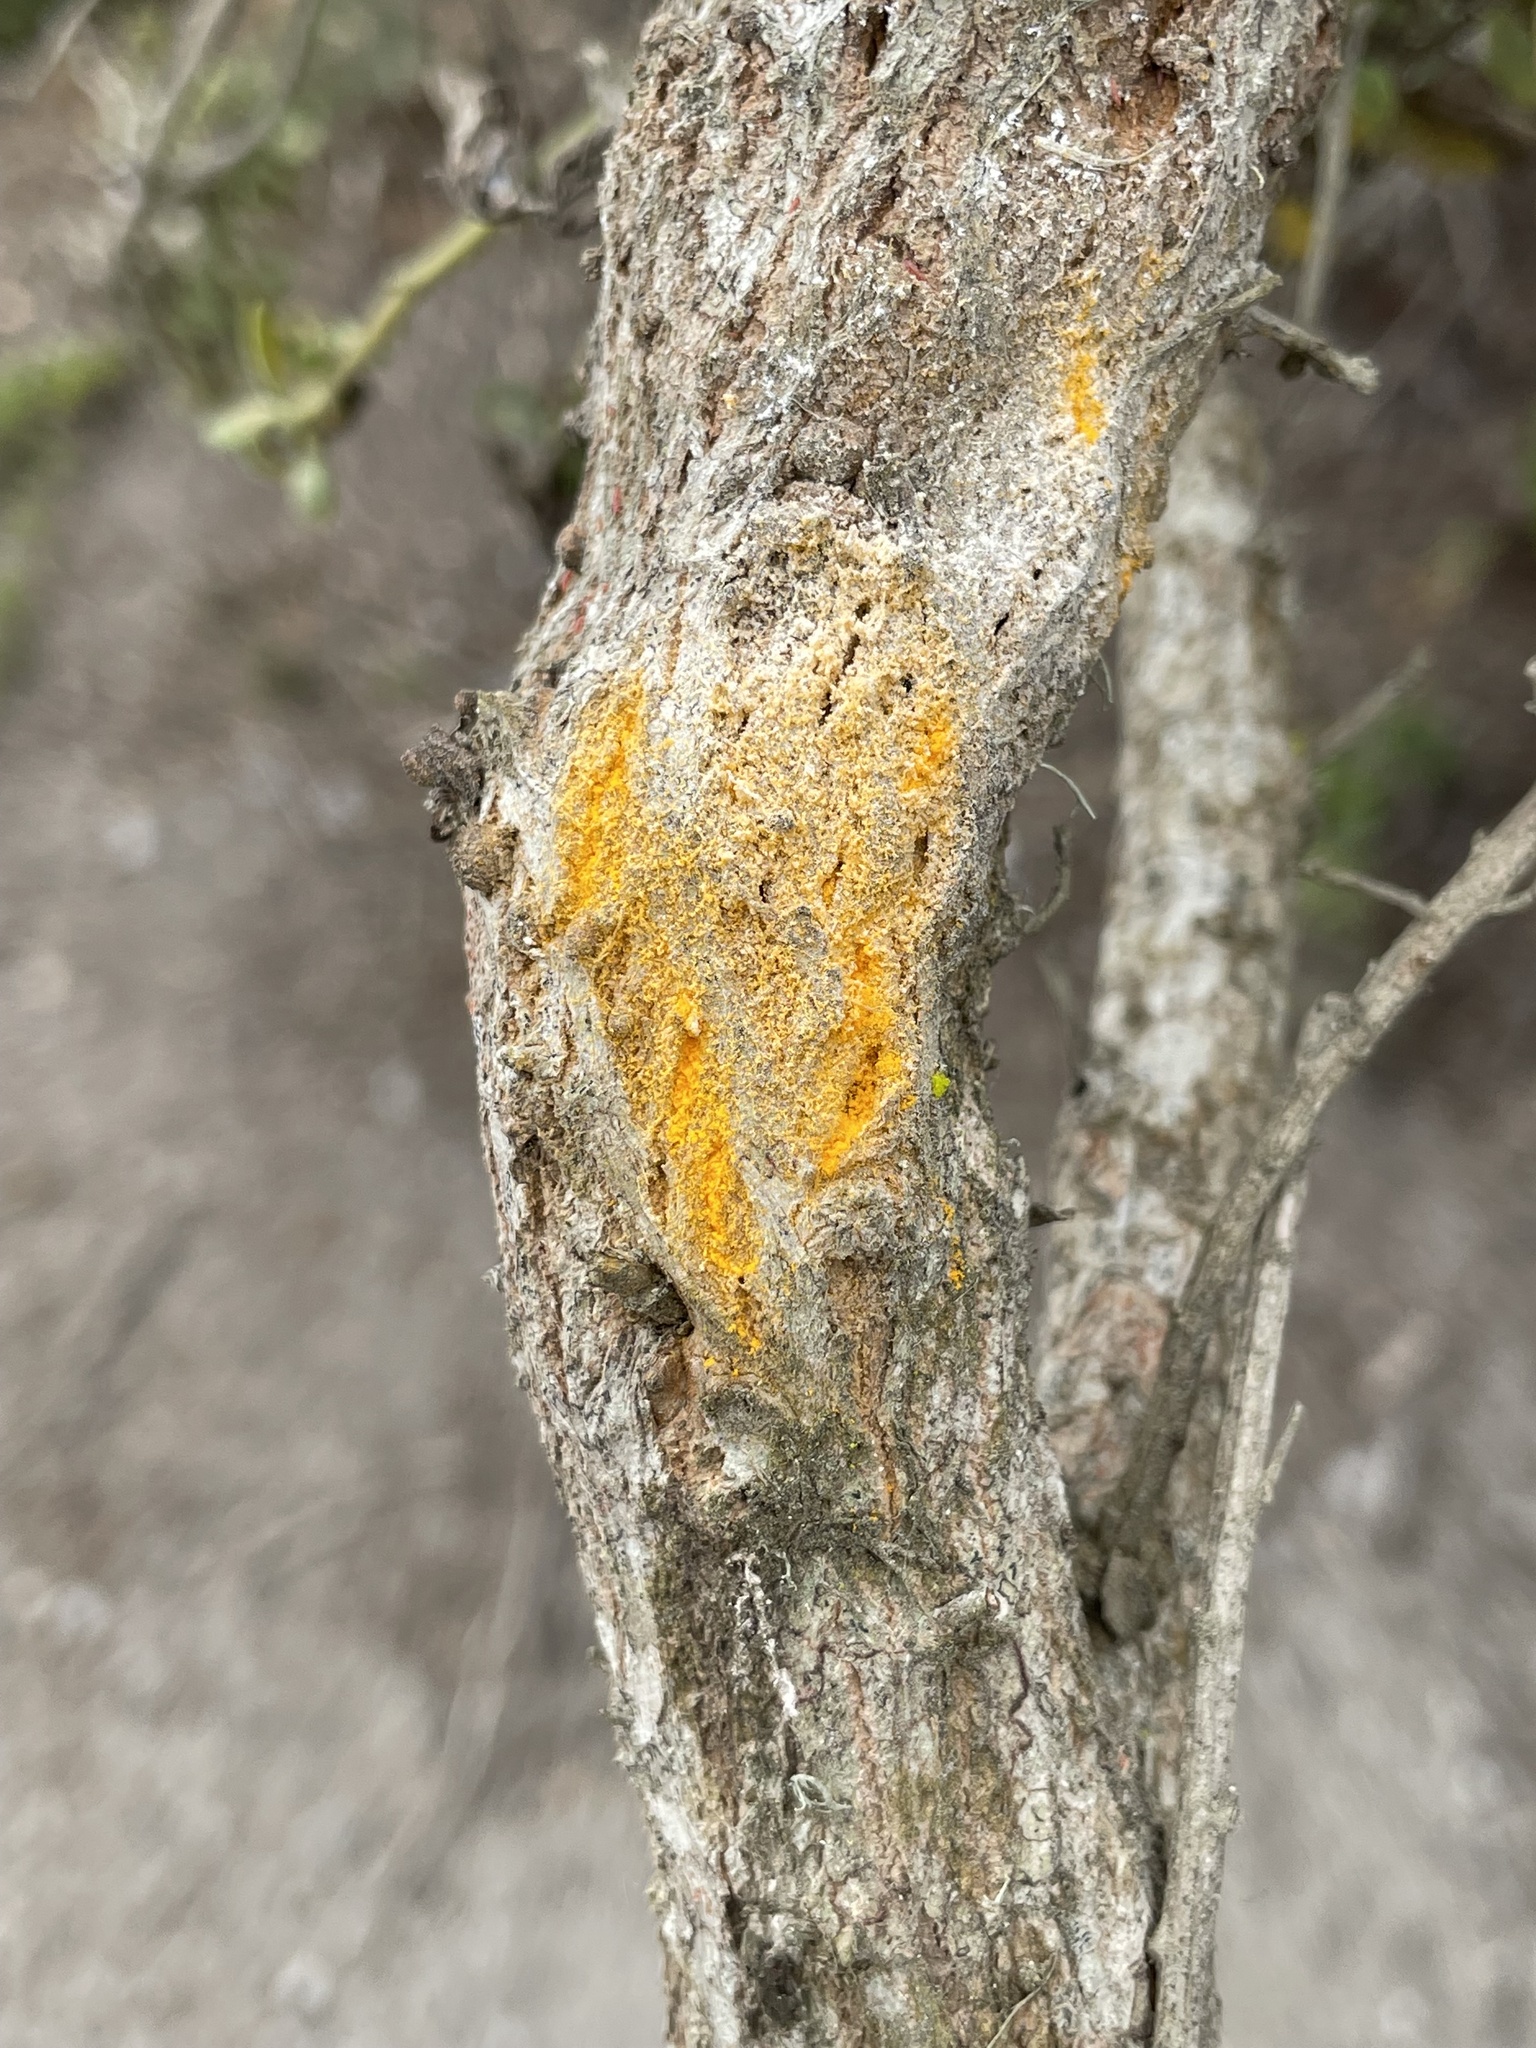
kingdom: Fungi
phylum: Basidiomycota
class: Pucciniomycetes
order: Pucciniales
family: Pucciniaceae
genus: Eriosporangium
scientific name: Eriosporangium evadens
